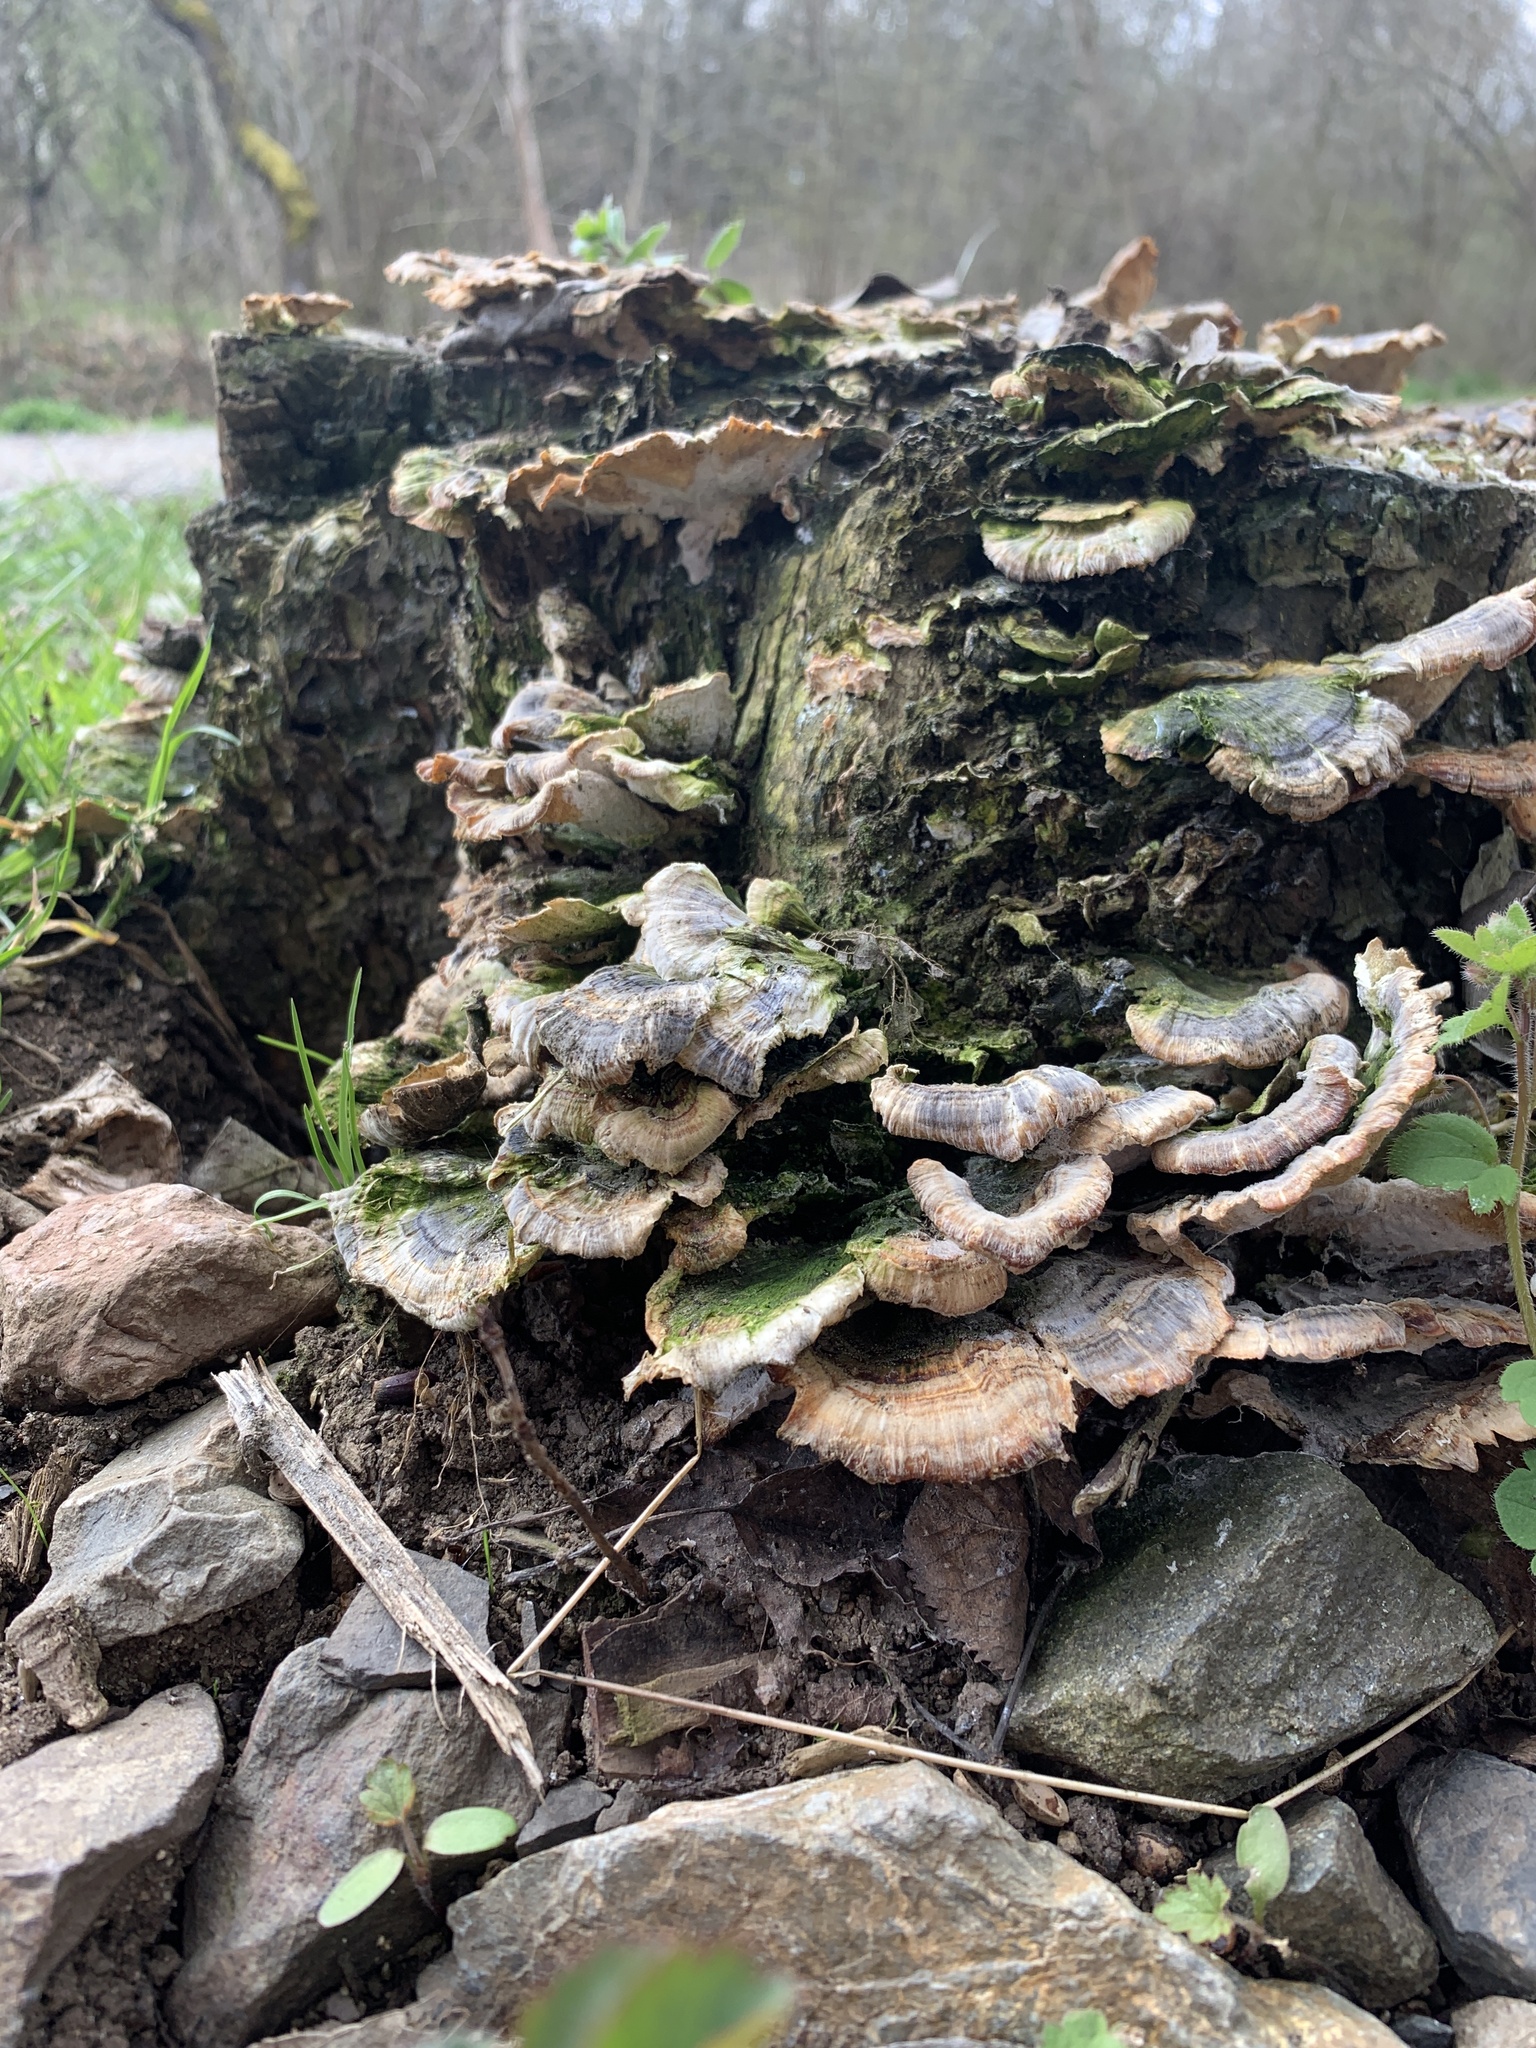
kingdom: Fungi
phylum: Basidiomycota
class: Agaricomycetes
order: Polyporales
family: Polyporaceae
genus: Trametes
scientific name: Trametes versicolor
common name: Turkeytail
